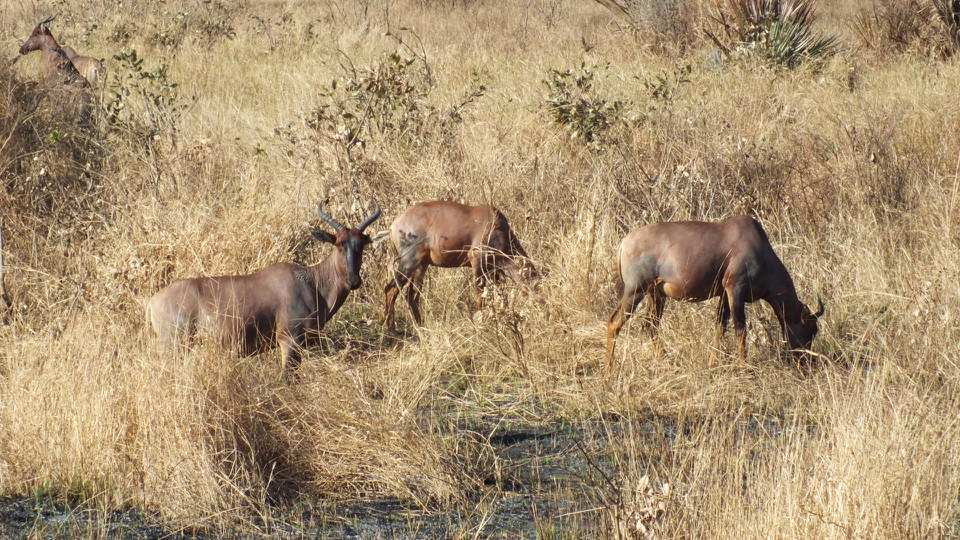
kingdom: Animalia
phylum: Chordata
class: Mammalia
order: Artiodactyla
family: Bovidae
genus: Damaliscus
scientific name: Damaliscus lunatus
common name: Common tsessebe
